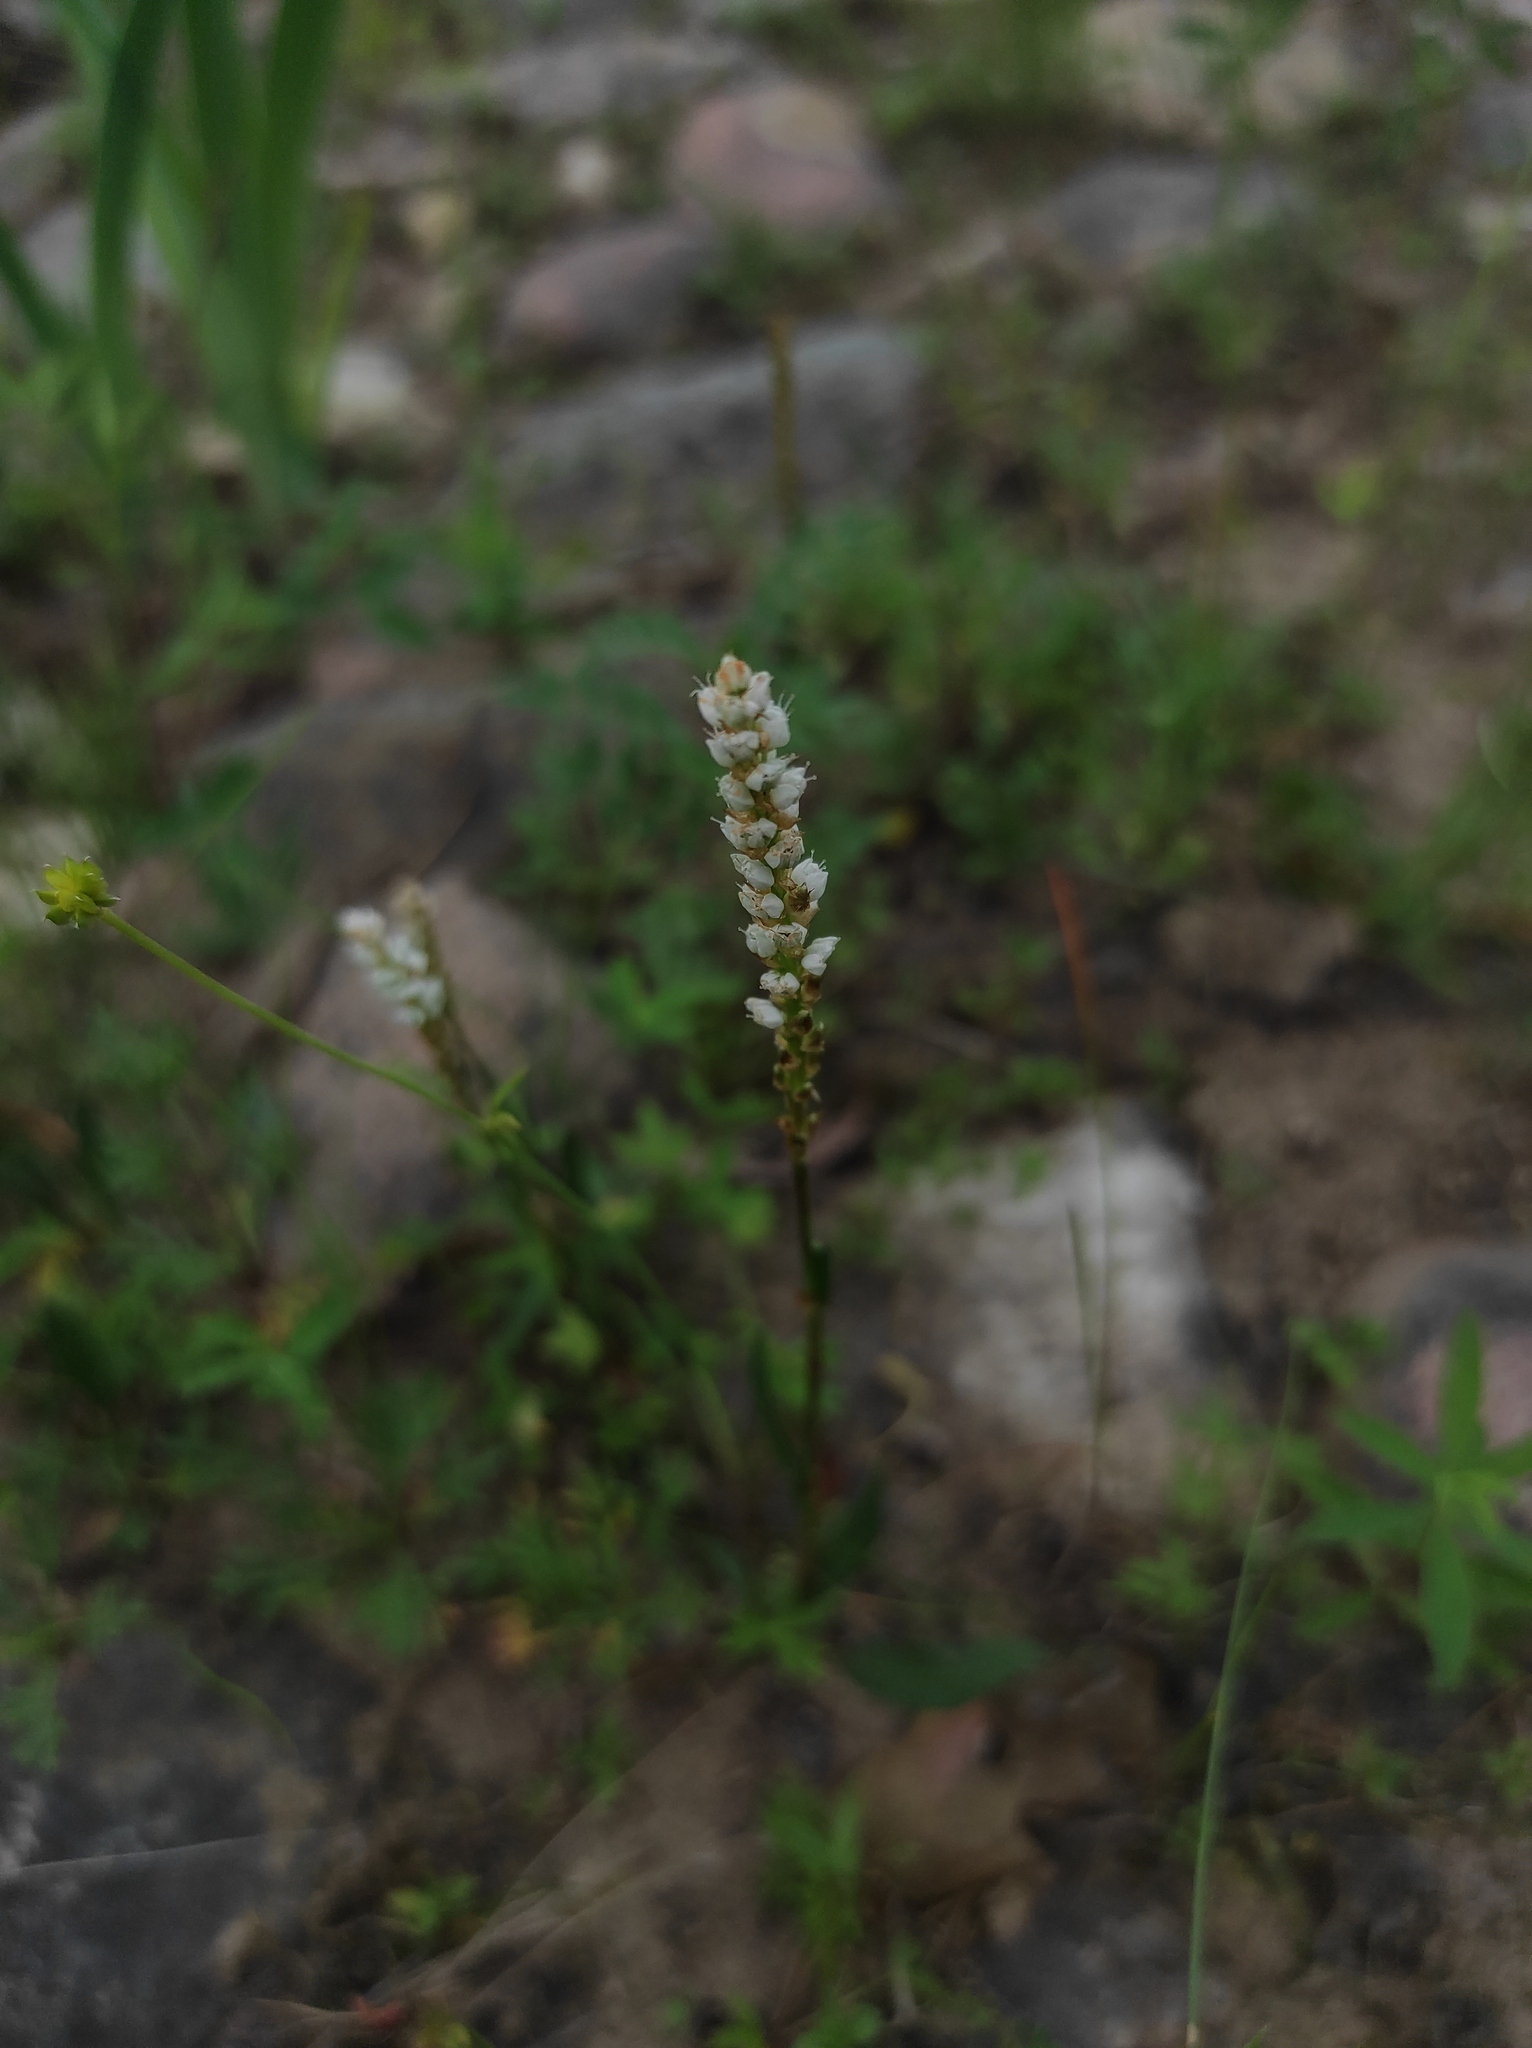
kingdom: Plantae
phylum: Tracheophyta
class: Magnoliopsida
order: Caryophyllales
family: Polygonaceae
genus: Bistorta
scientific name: Bistorta vivipara
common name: Alpine bistort
